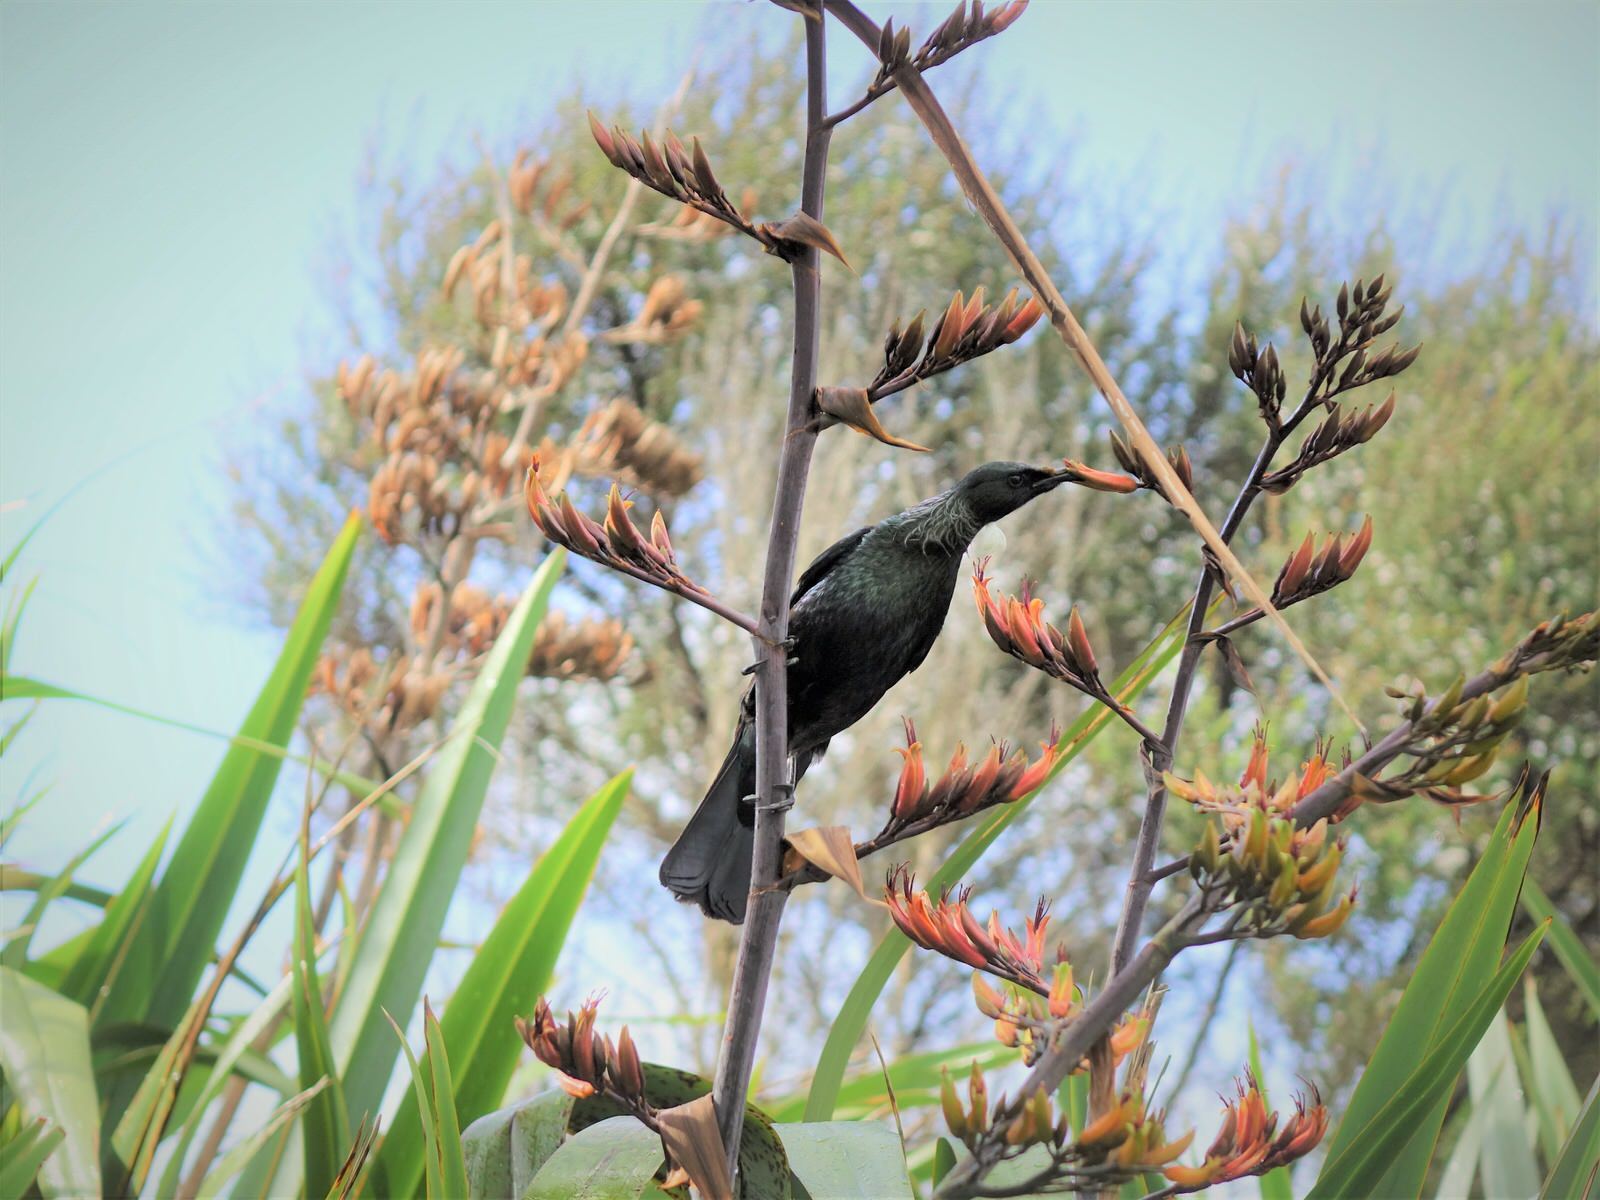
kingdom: Animalia
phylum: Chordata
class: Aves
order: Passeriformes
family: Meliphagidae
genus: Prosthemadera
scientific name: Prosthemadera novaeseelandiae
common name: Tui
